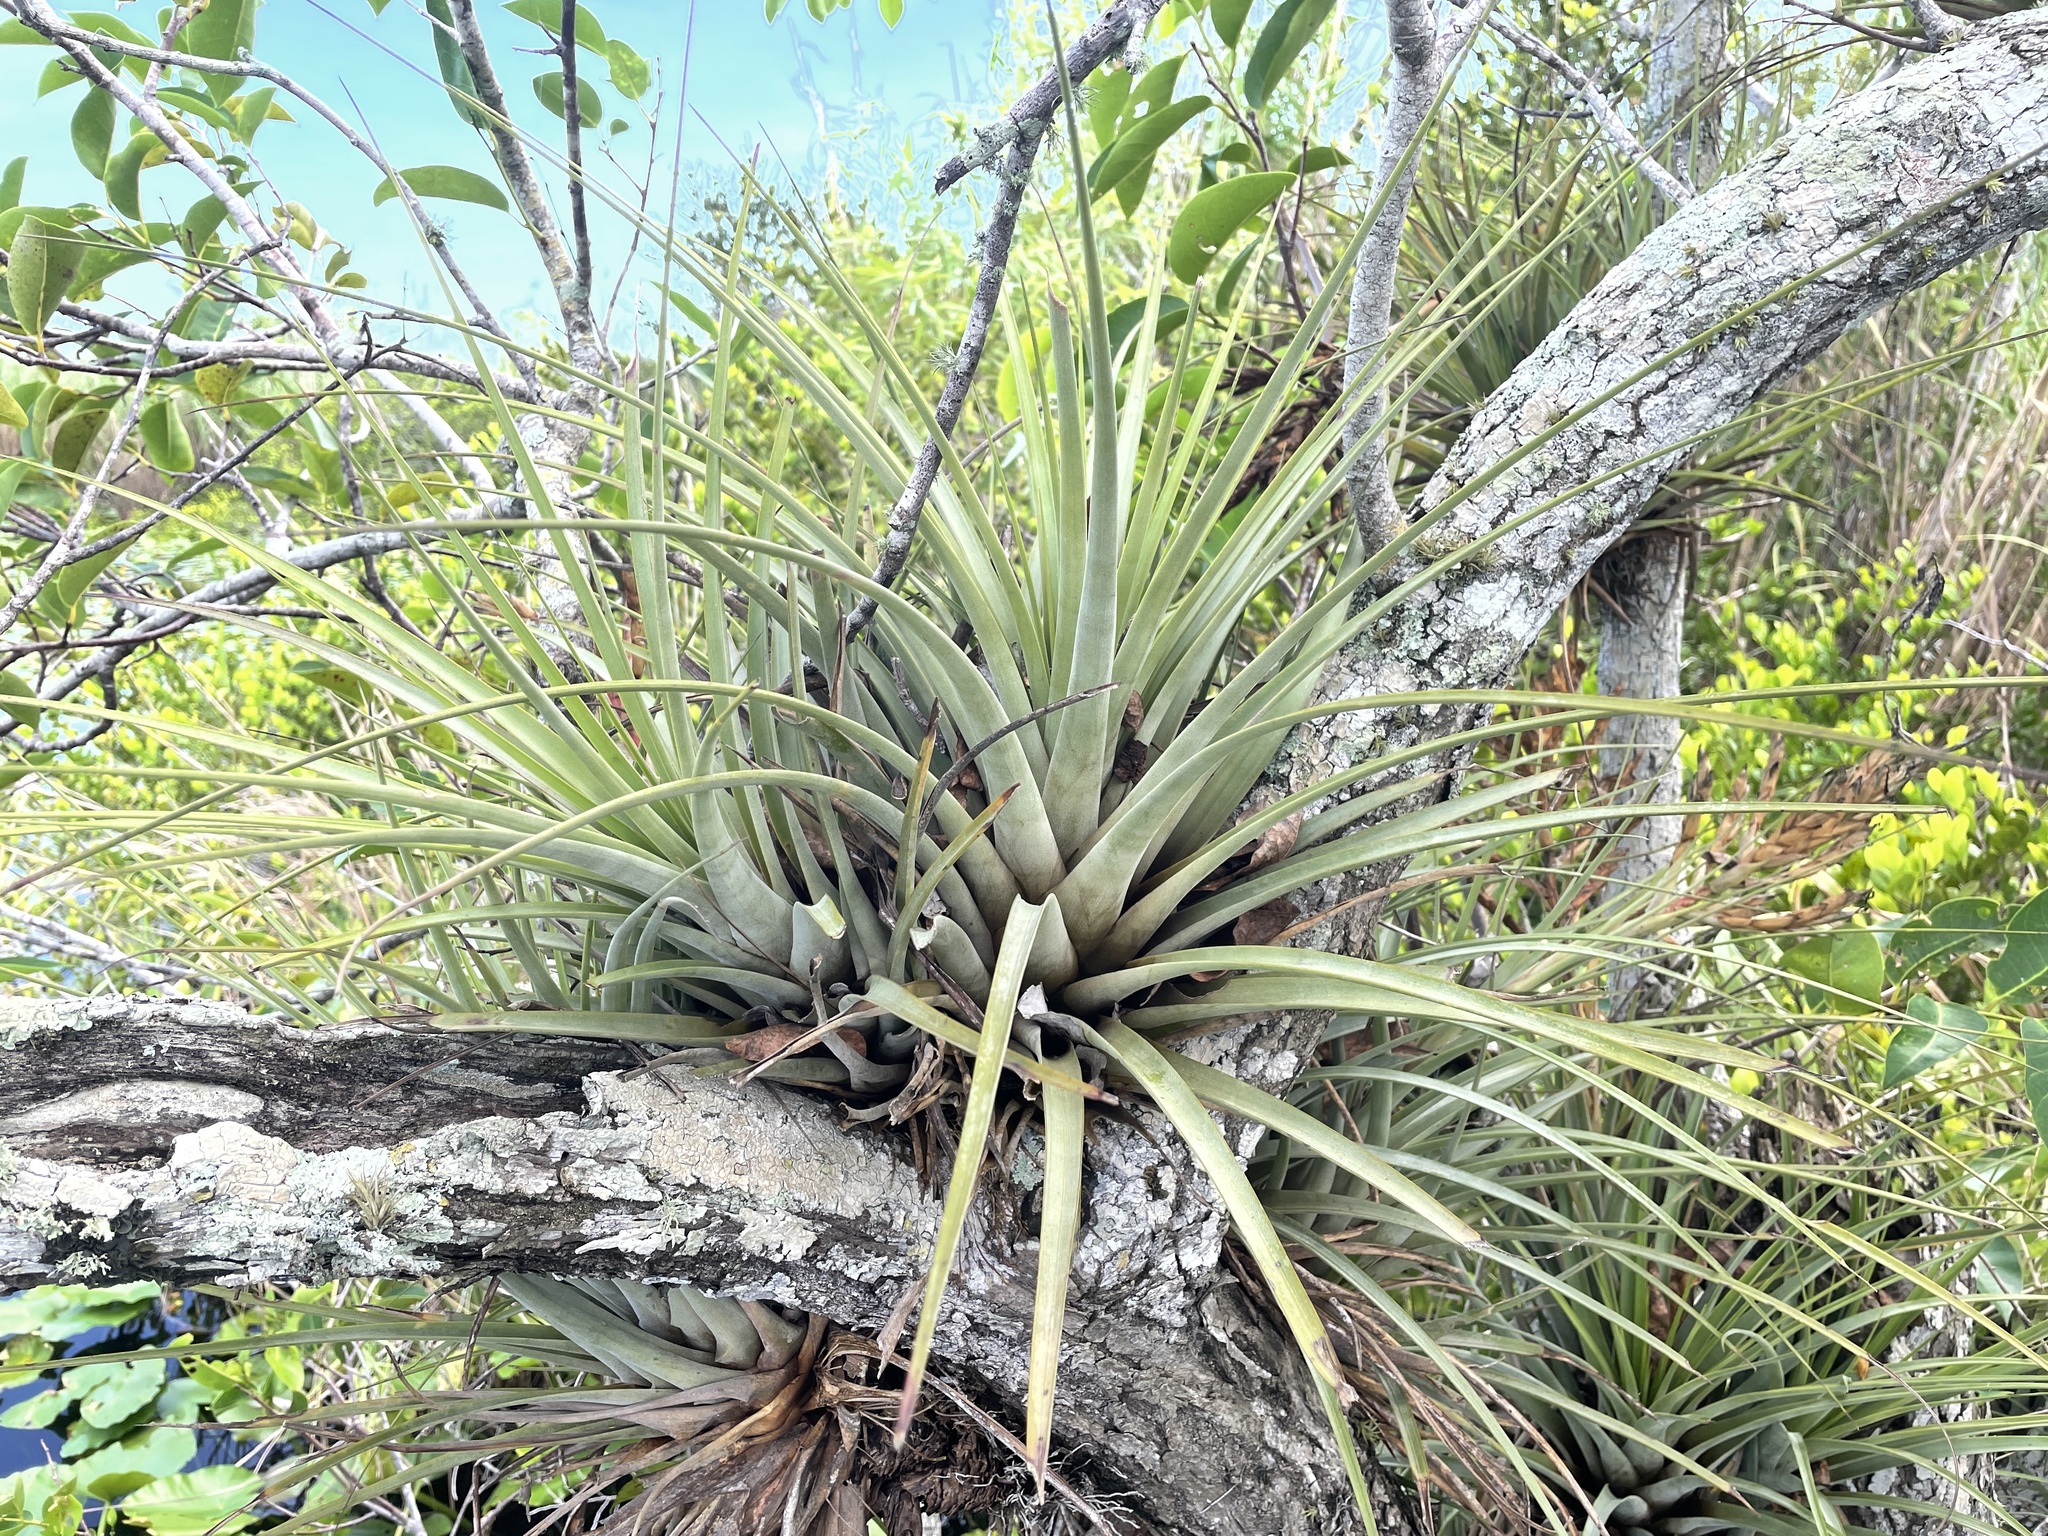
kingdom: Plantae
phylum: Tracheophyta
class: Liliopsida
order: Poales
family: Bromeliaceae
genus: Tillandsia
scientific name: Tillandsia fasciculata
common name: Giant airplant
